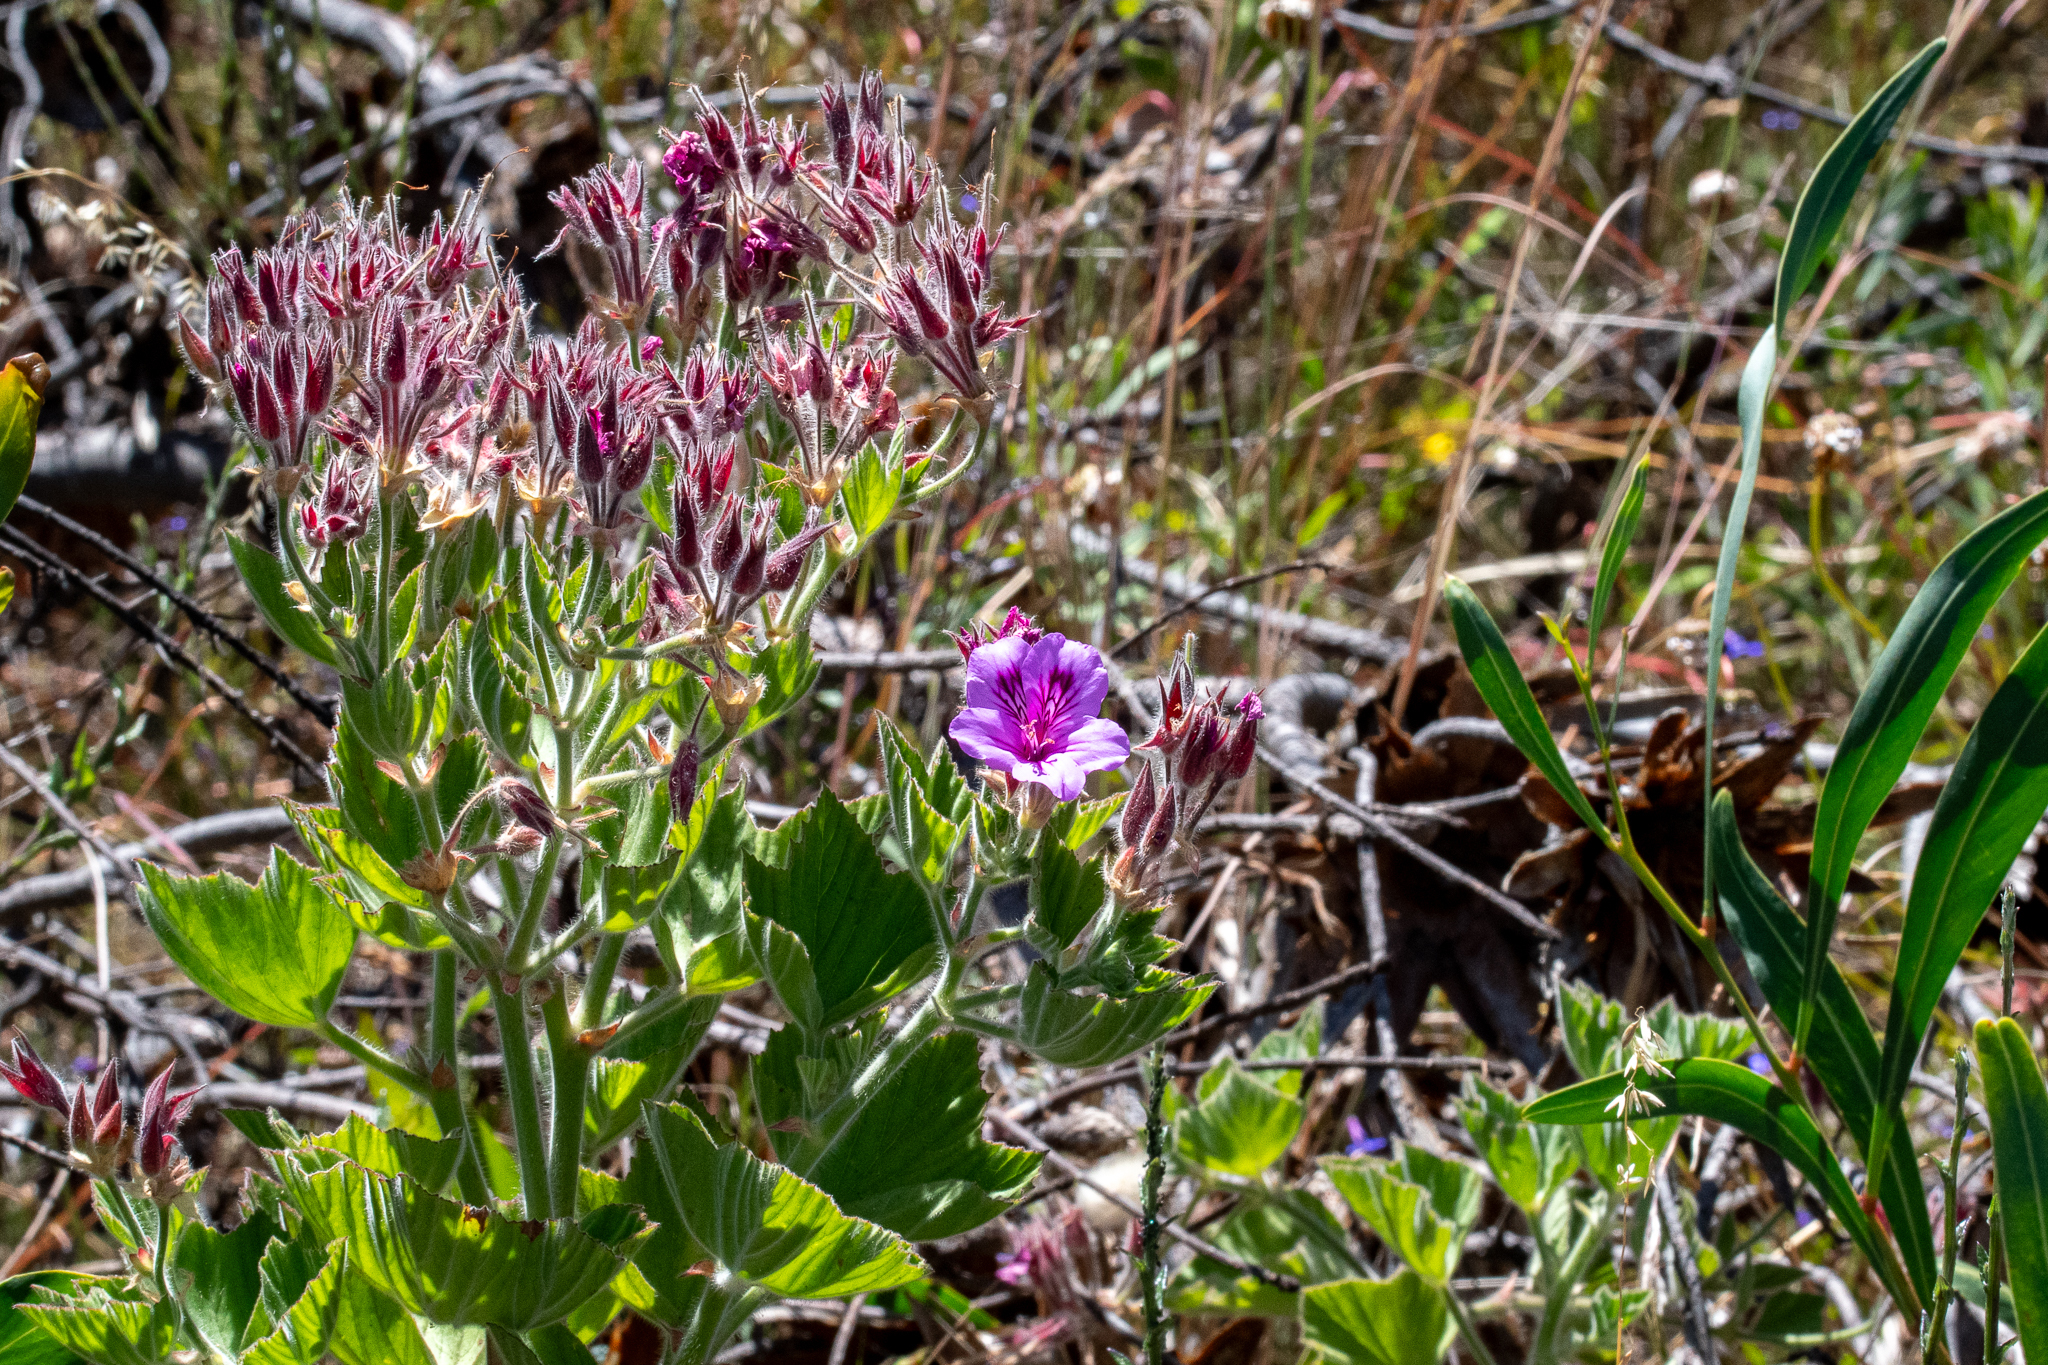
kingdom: Plantae
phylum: Tracheophyta
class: Magnoliopsida
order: Geraniales
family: Geraniaceae
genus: Pelargonium
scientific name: Pelargonium cucullatum
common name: Tree pelargonium
